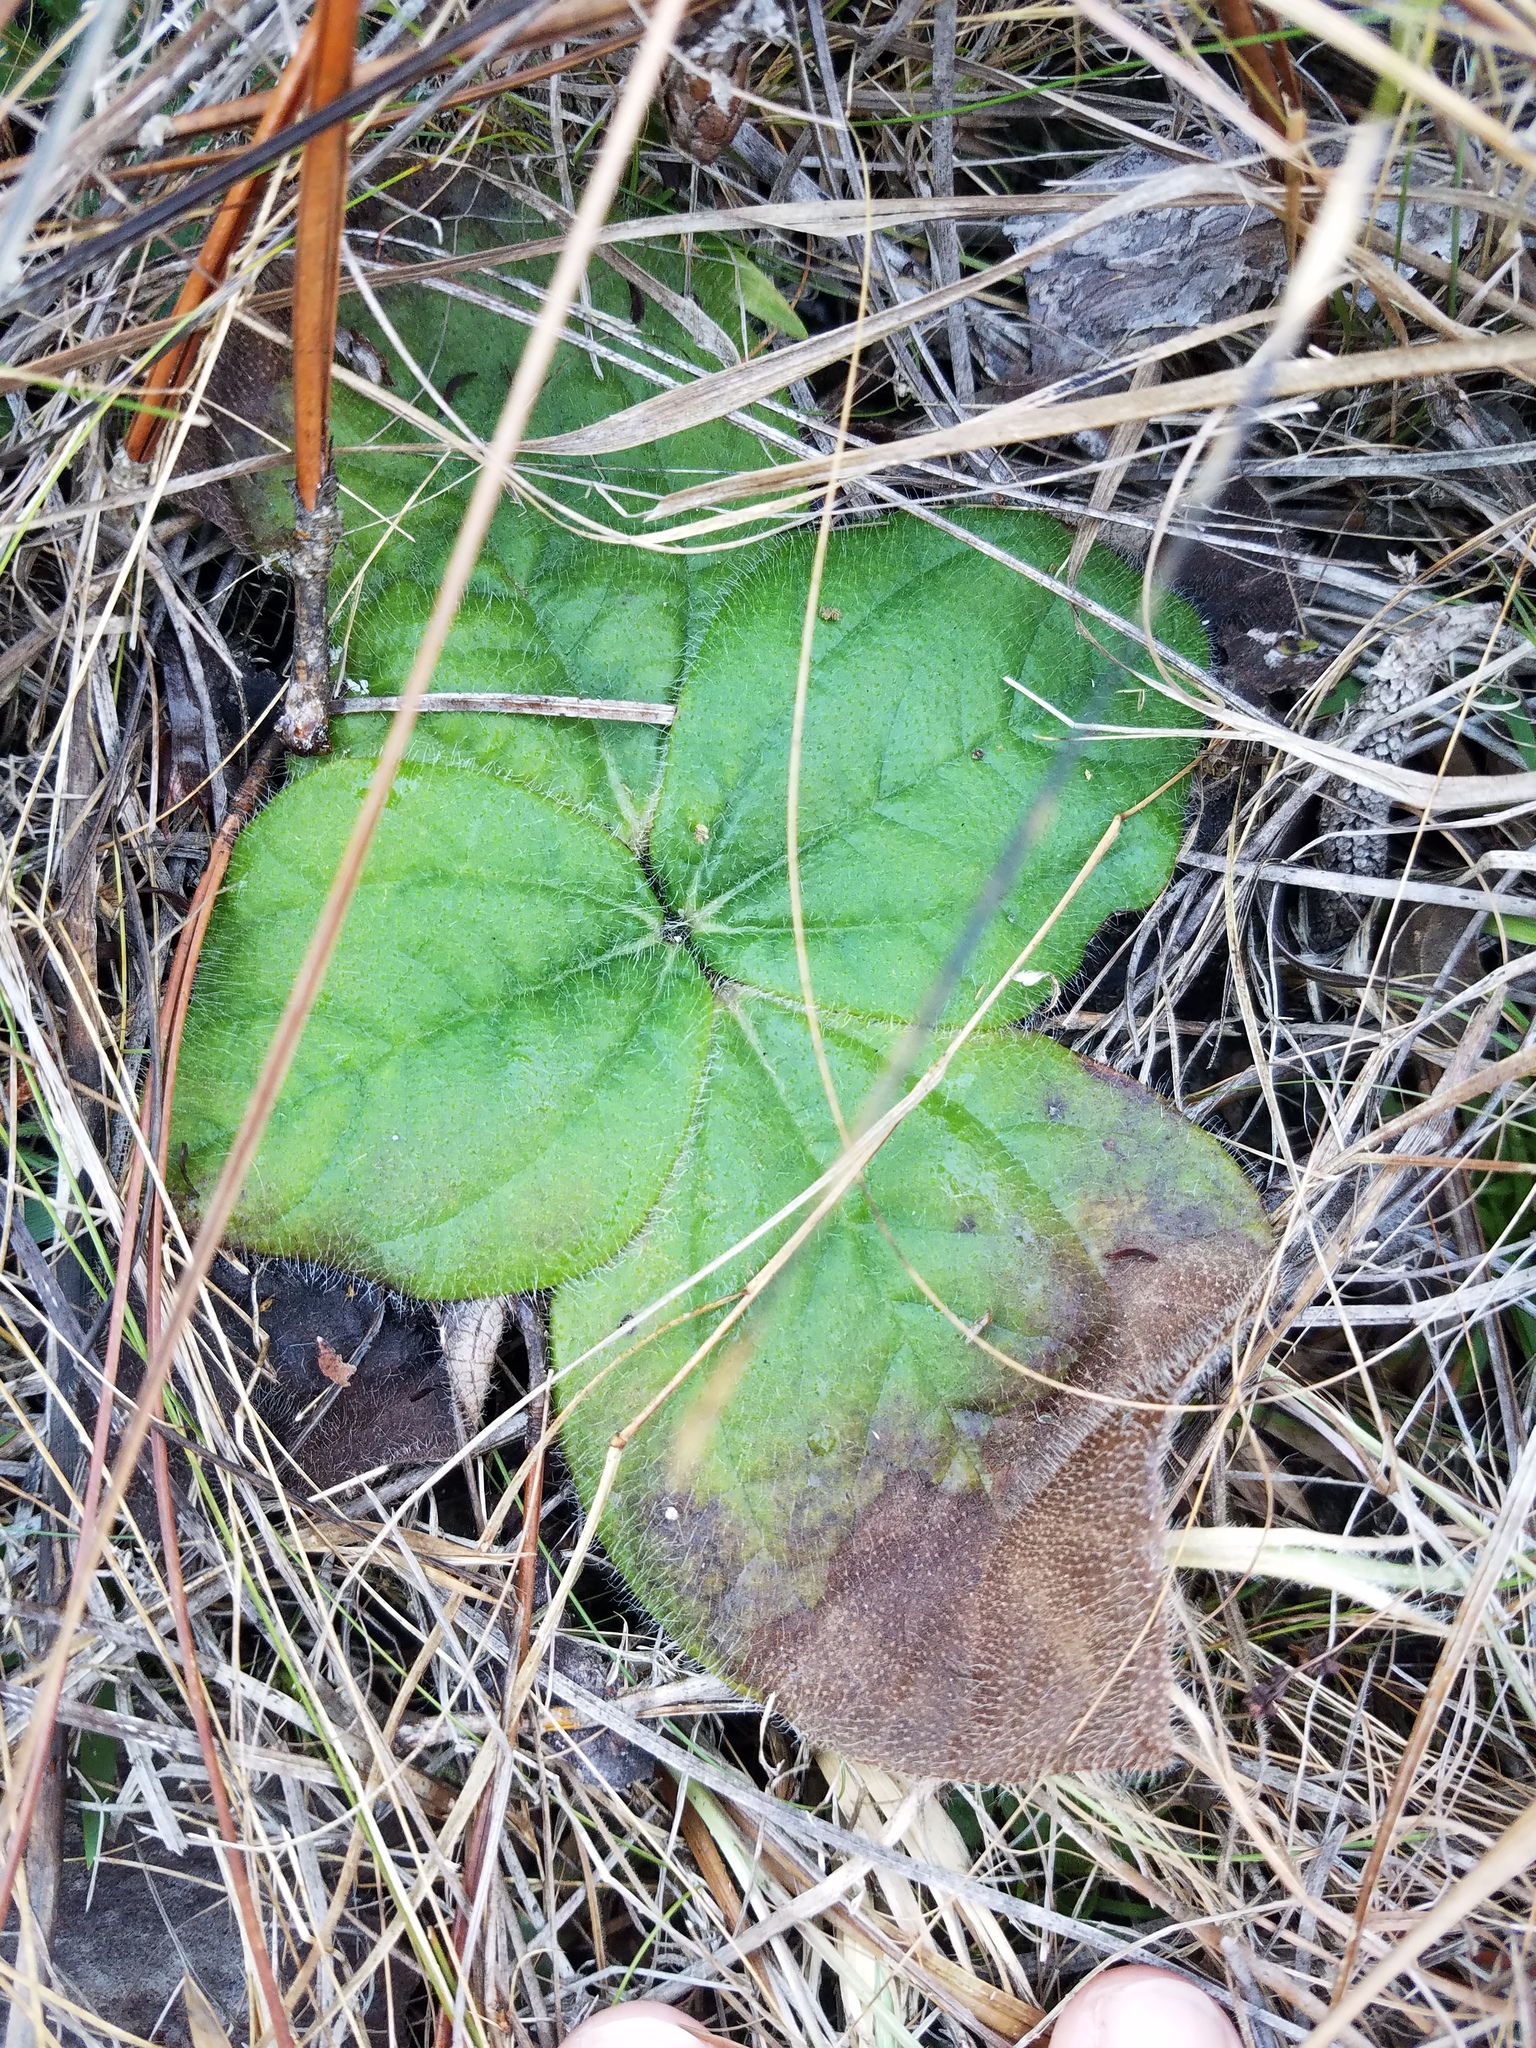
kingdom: Plantae
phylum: Tracheophyta
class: Magnoliopsida
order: Asterales
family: Asteraceae
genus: Helianthus
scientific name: Helianthus radula
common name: Pineland sunflower
